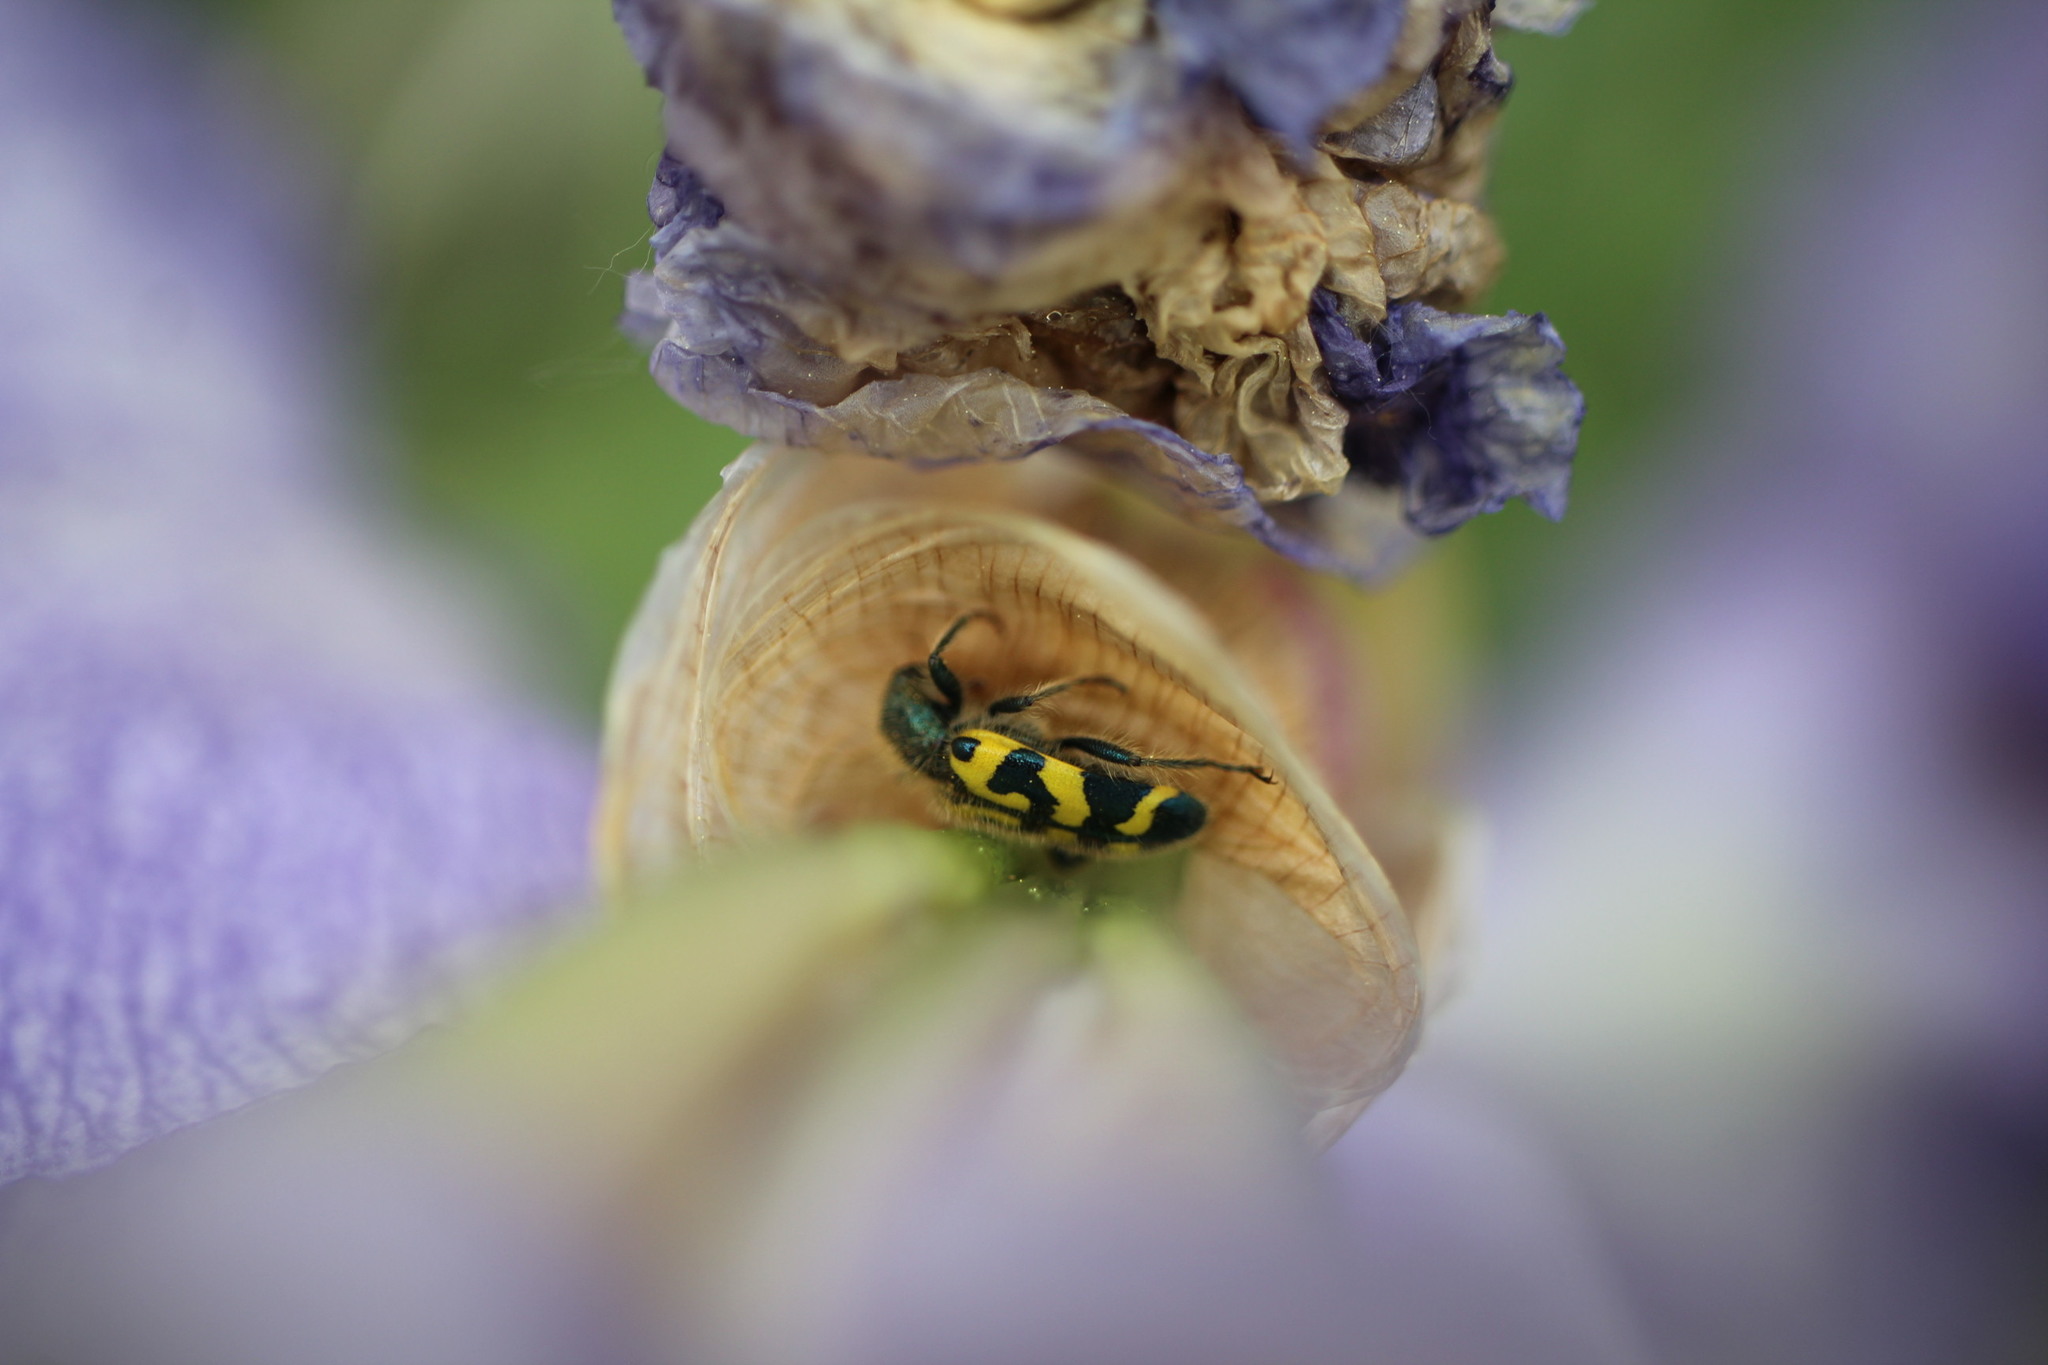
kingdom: Animalia
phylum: Arthropoda
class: Insecta
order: Coleoptera
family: Cleridae
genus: Trichodes
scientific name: Trichodes ornatus
